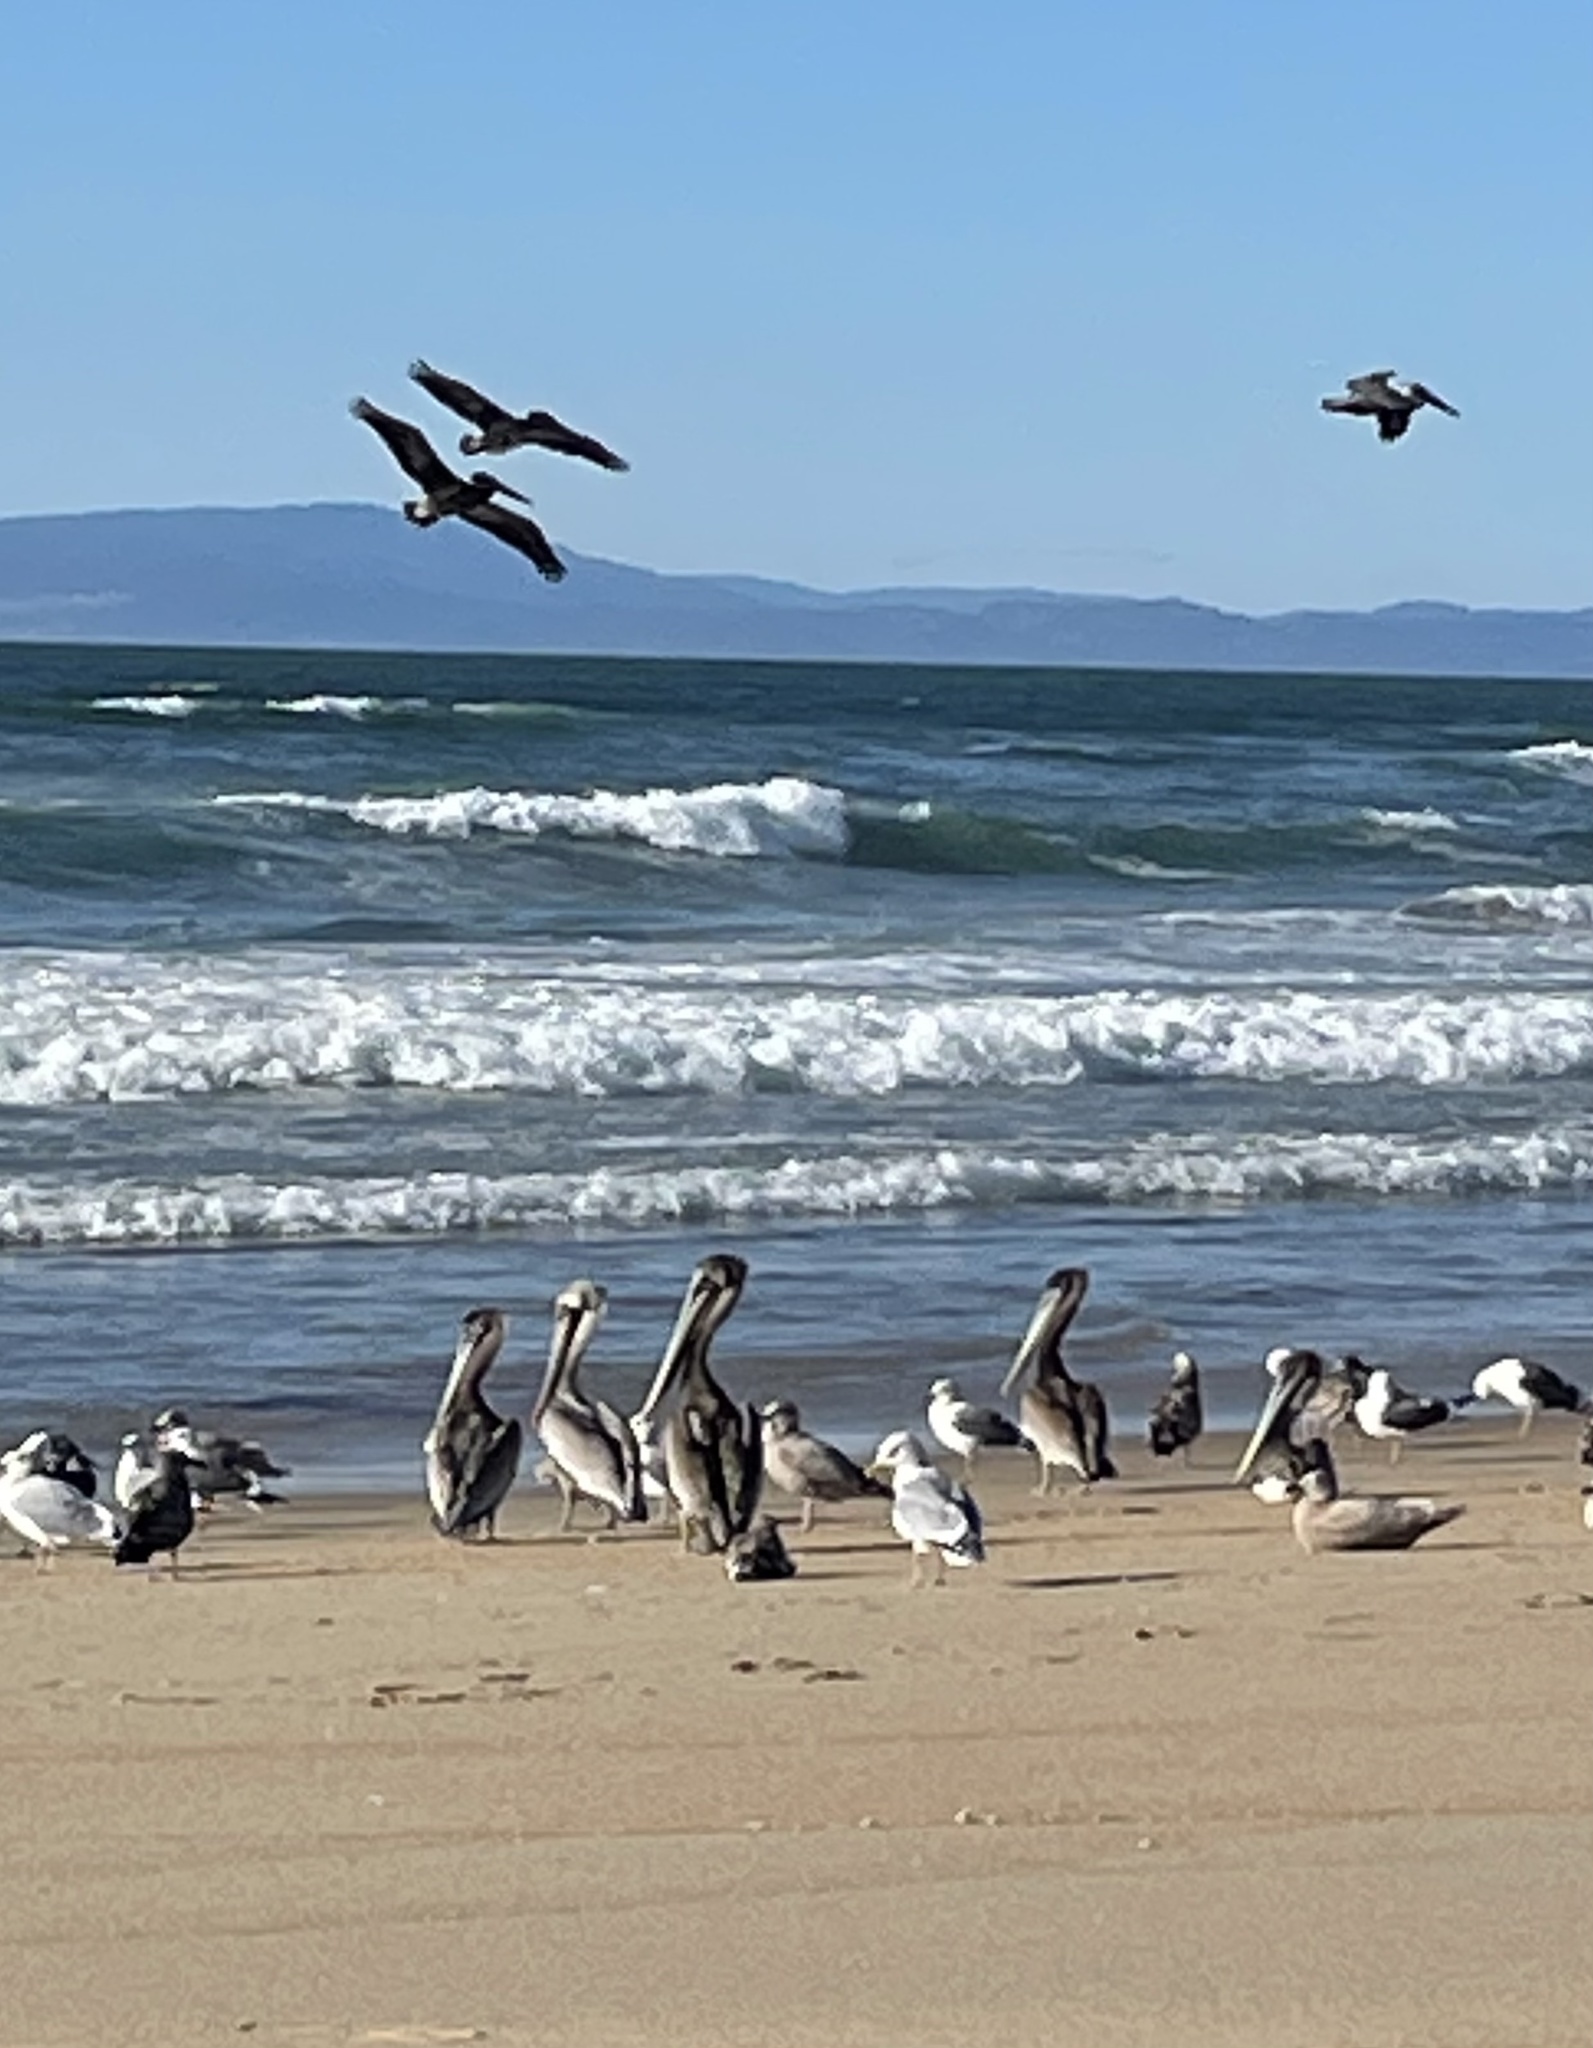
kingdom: Animalia
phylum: Chordata
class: Aves
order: Pelecaniformes
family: Pelecanidae
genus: Pelecanus
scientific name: Pelecanus occidentalis
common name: Brown pelican
